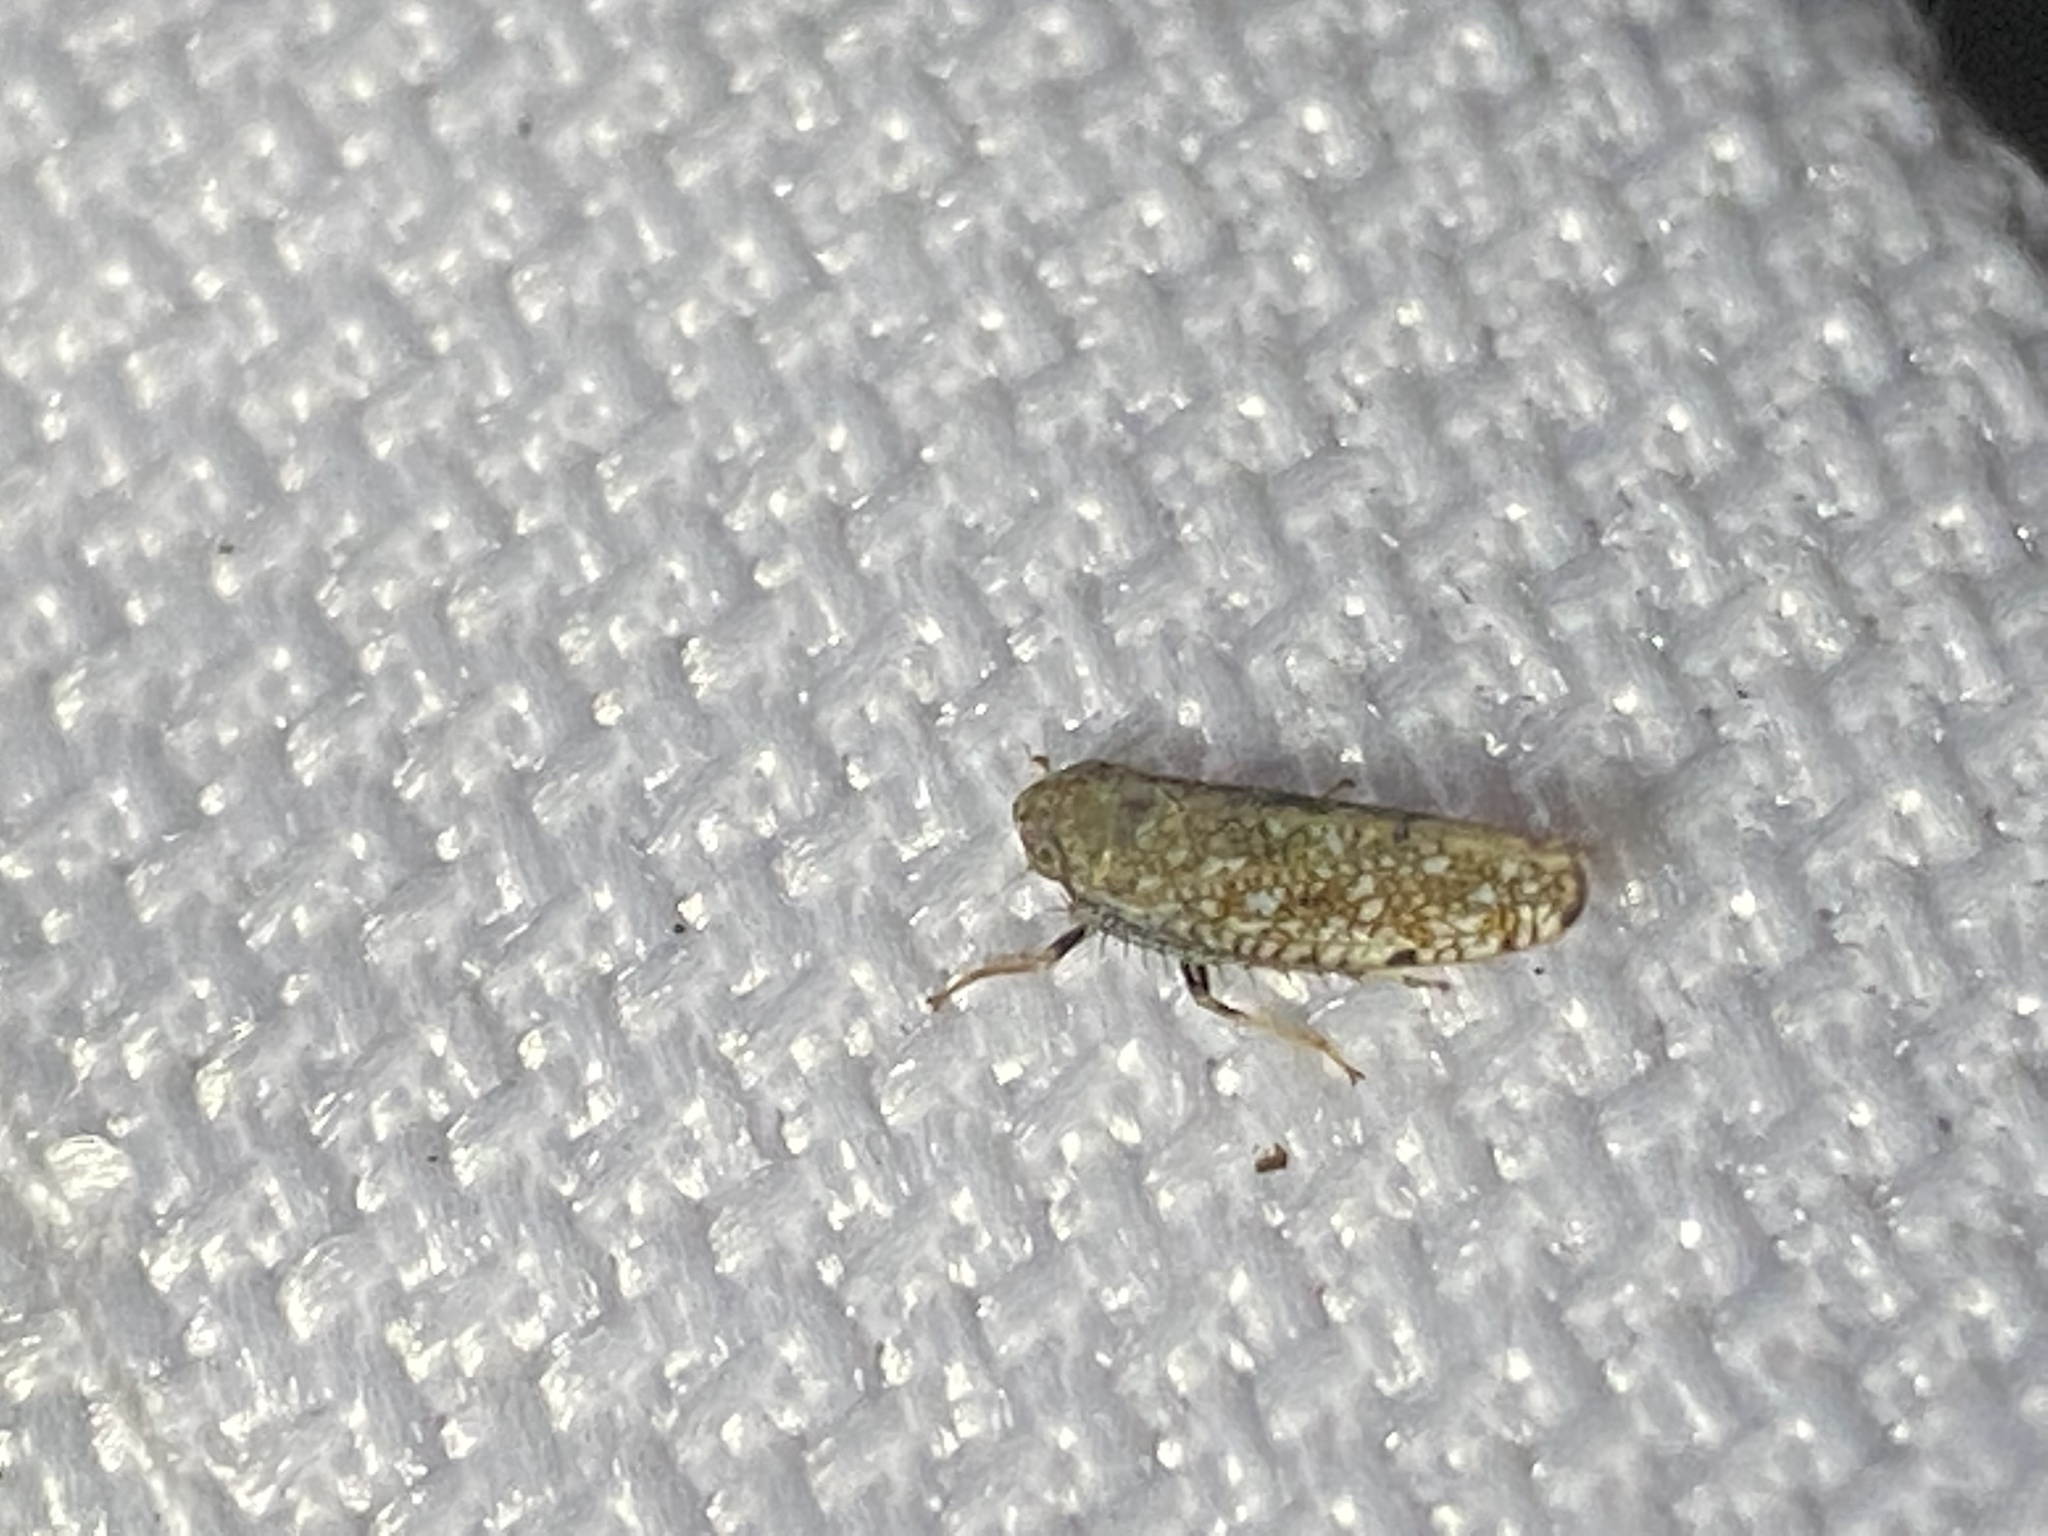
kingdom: Animalia
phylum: Arthropoda
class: Insecta
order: Hemiptera
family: Cicadellidae
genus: Orientus
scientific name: Orientus ishidae
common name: Japanese leafhopper
